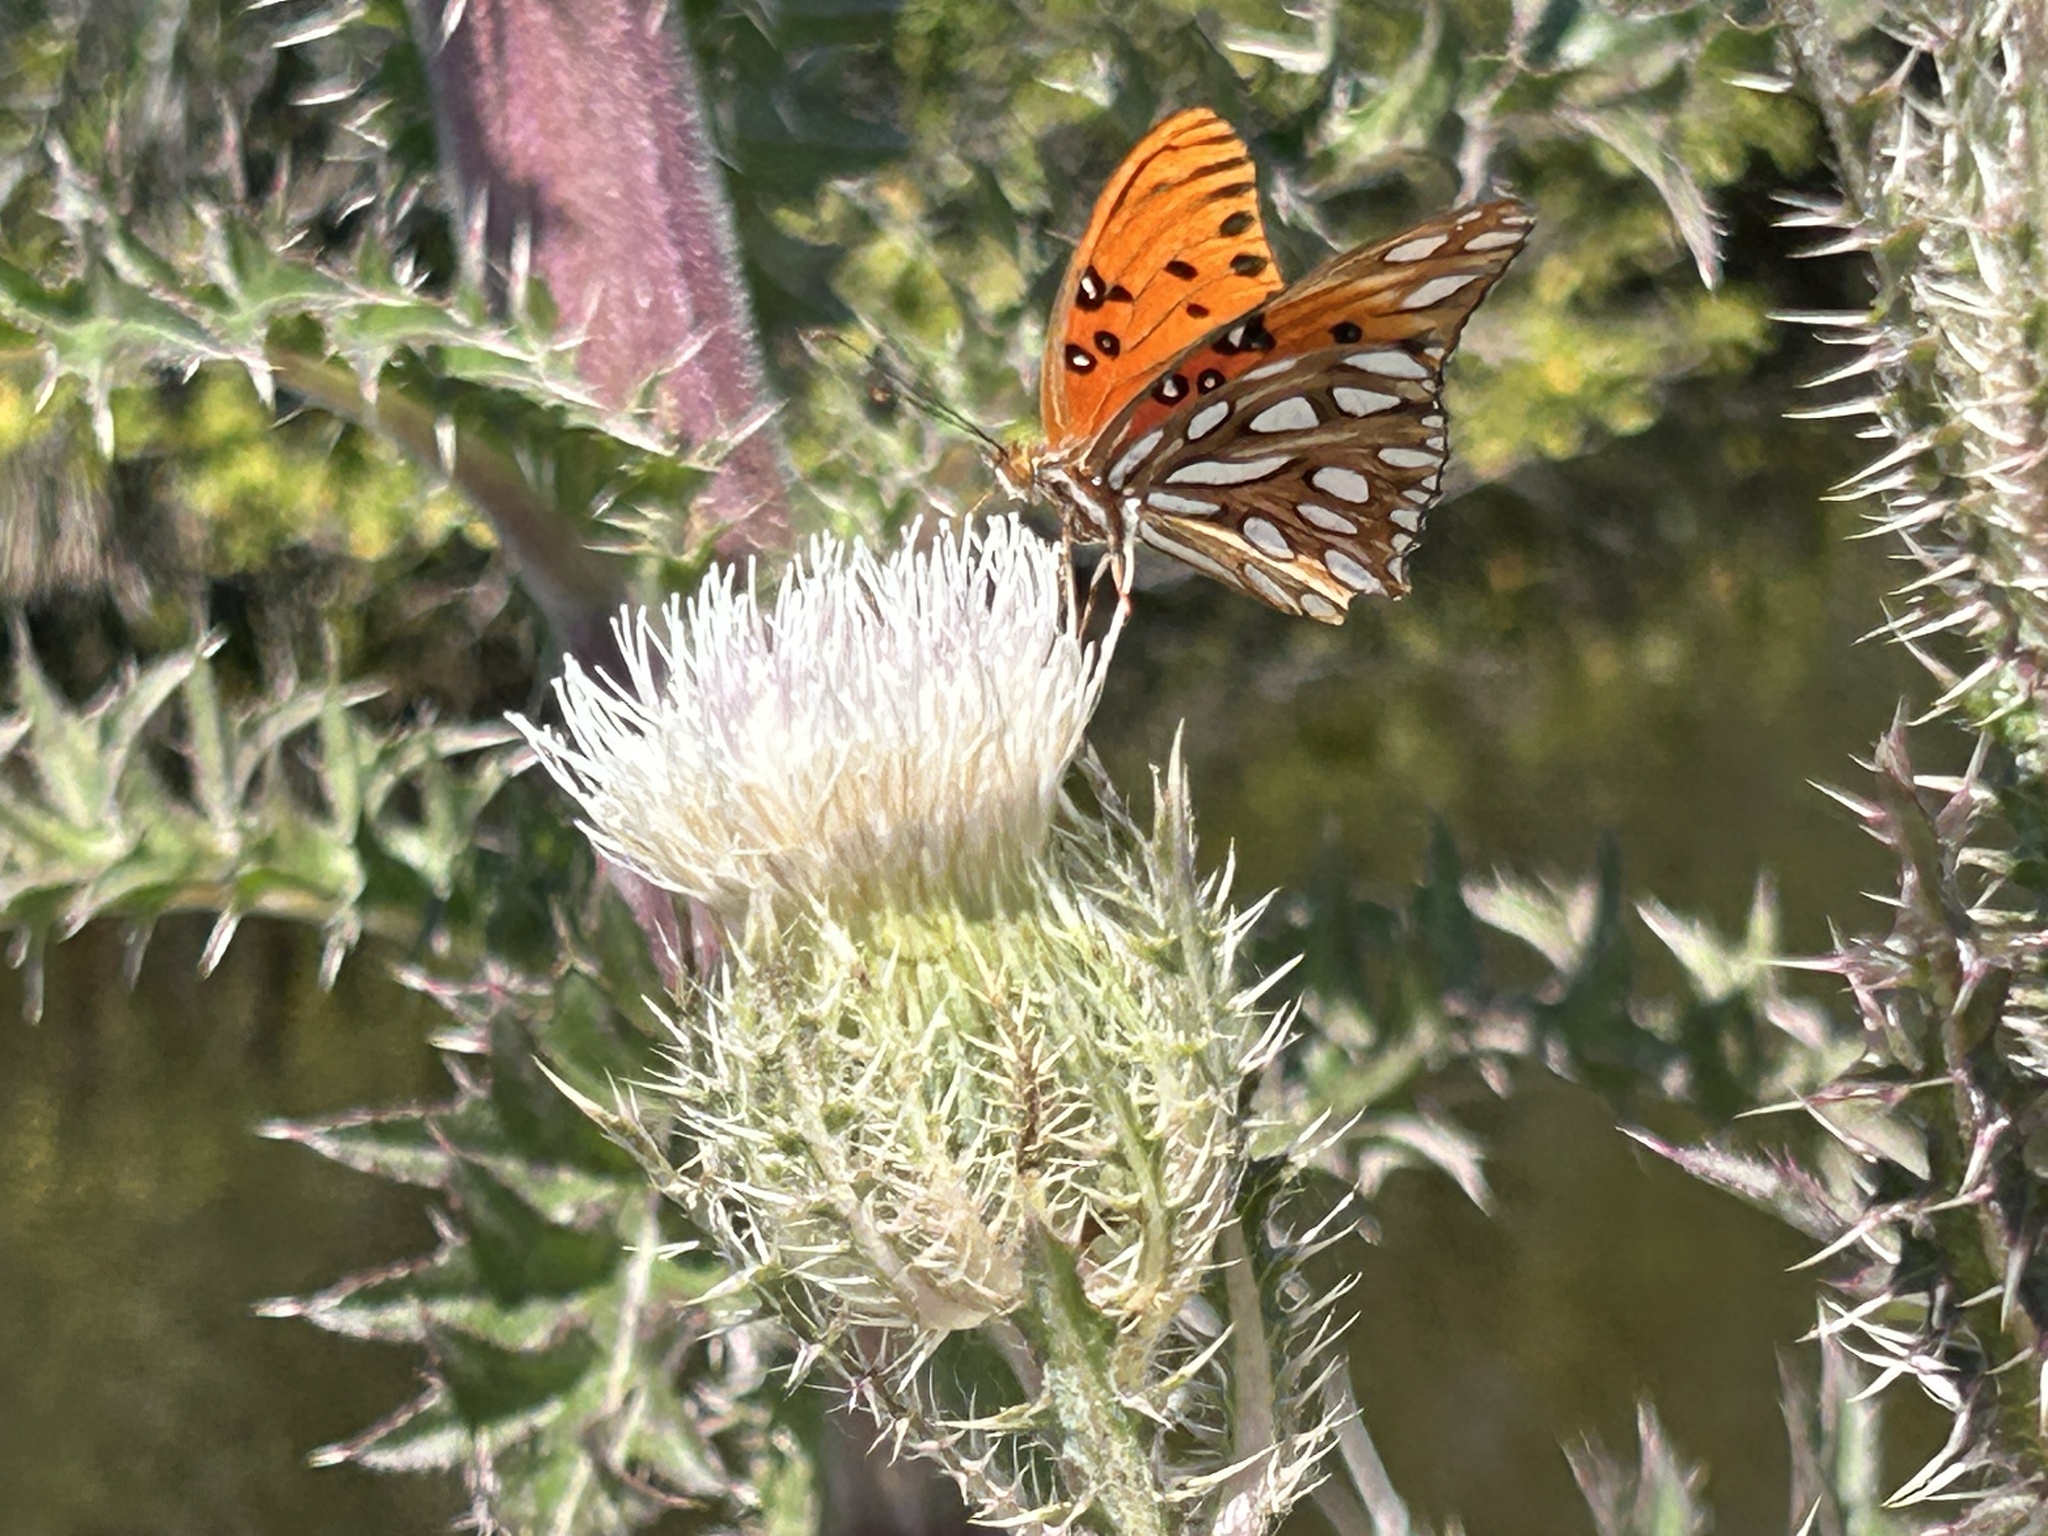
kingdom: Animalia
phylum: Arthropoda
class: Insecta
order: Lepidoptera
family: Nymphalidae
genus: Dione
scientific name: Dione vanillae
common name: Gulf fritillary
